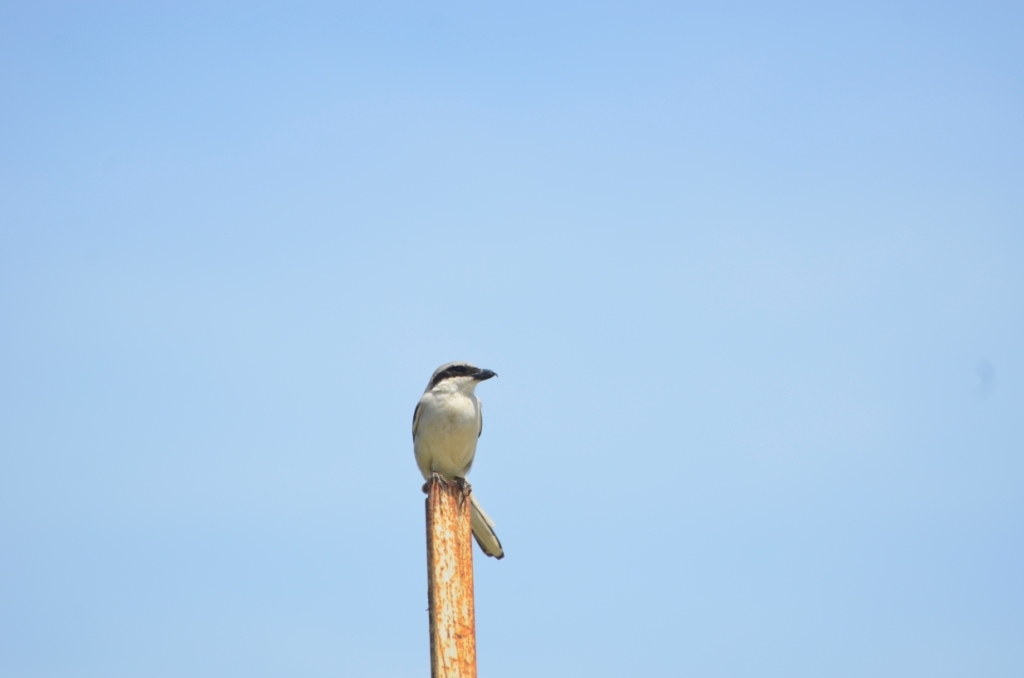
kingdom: Animalia
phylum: Chordata
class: Aves
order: Passeriformes
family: Laniidae
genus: Lanius
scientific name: Lanius excubitor
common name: Great grey shrike
